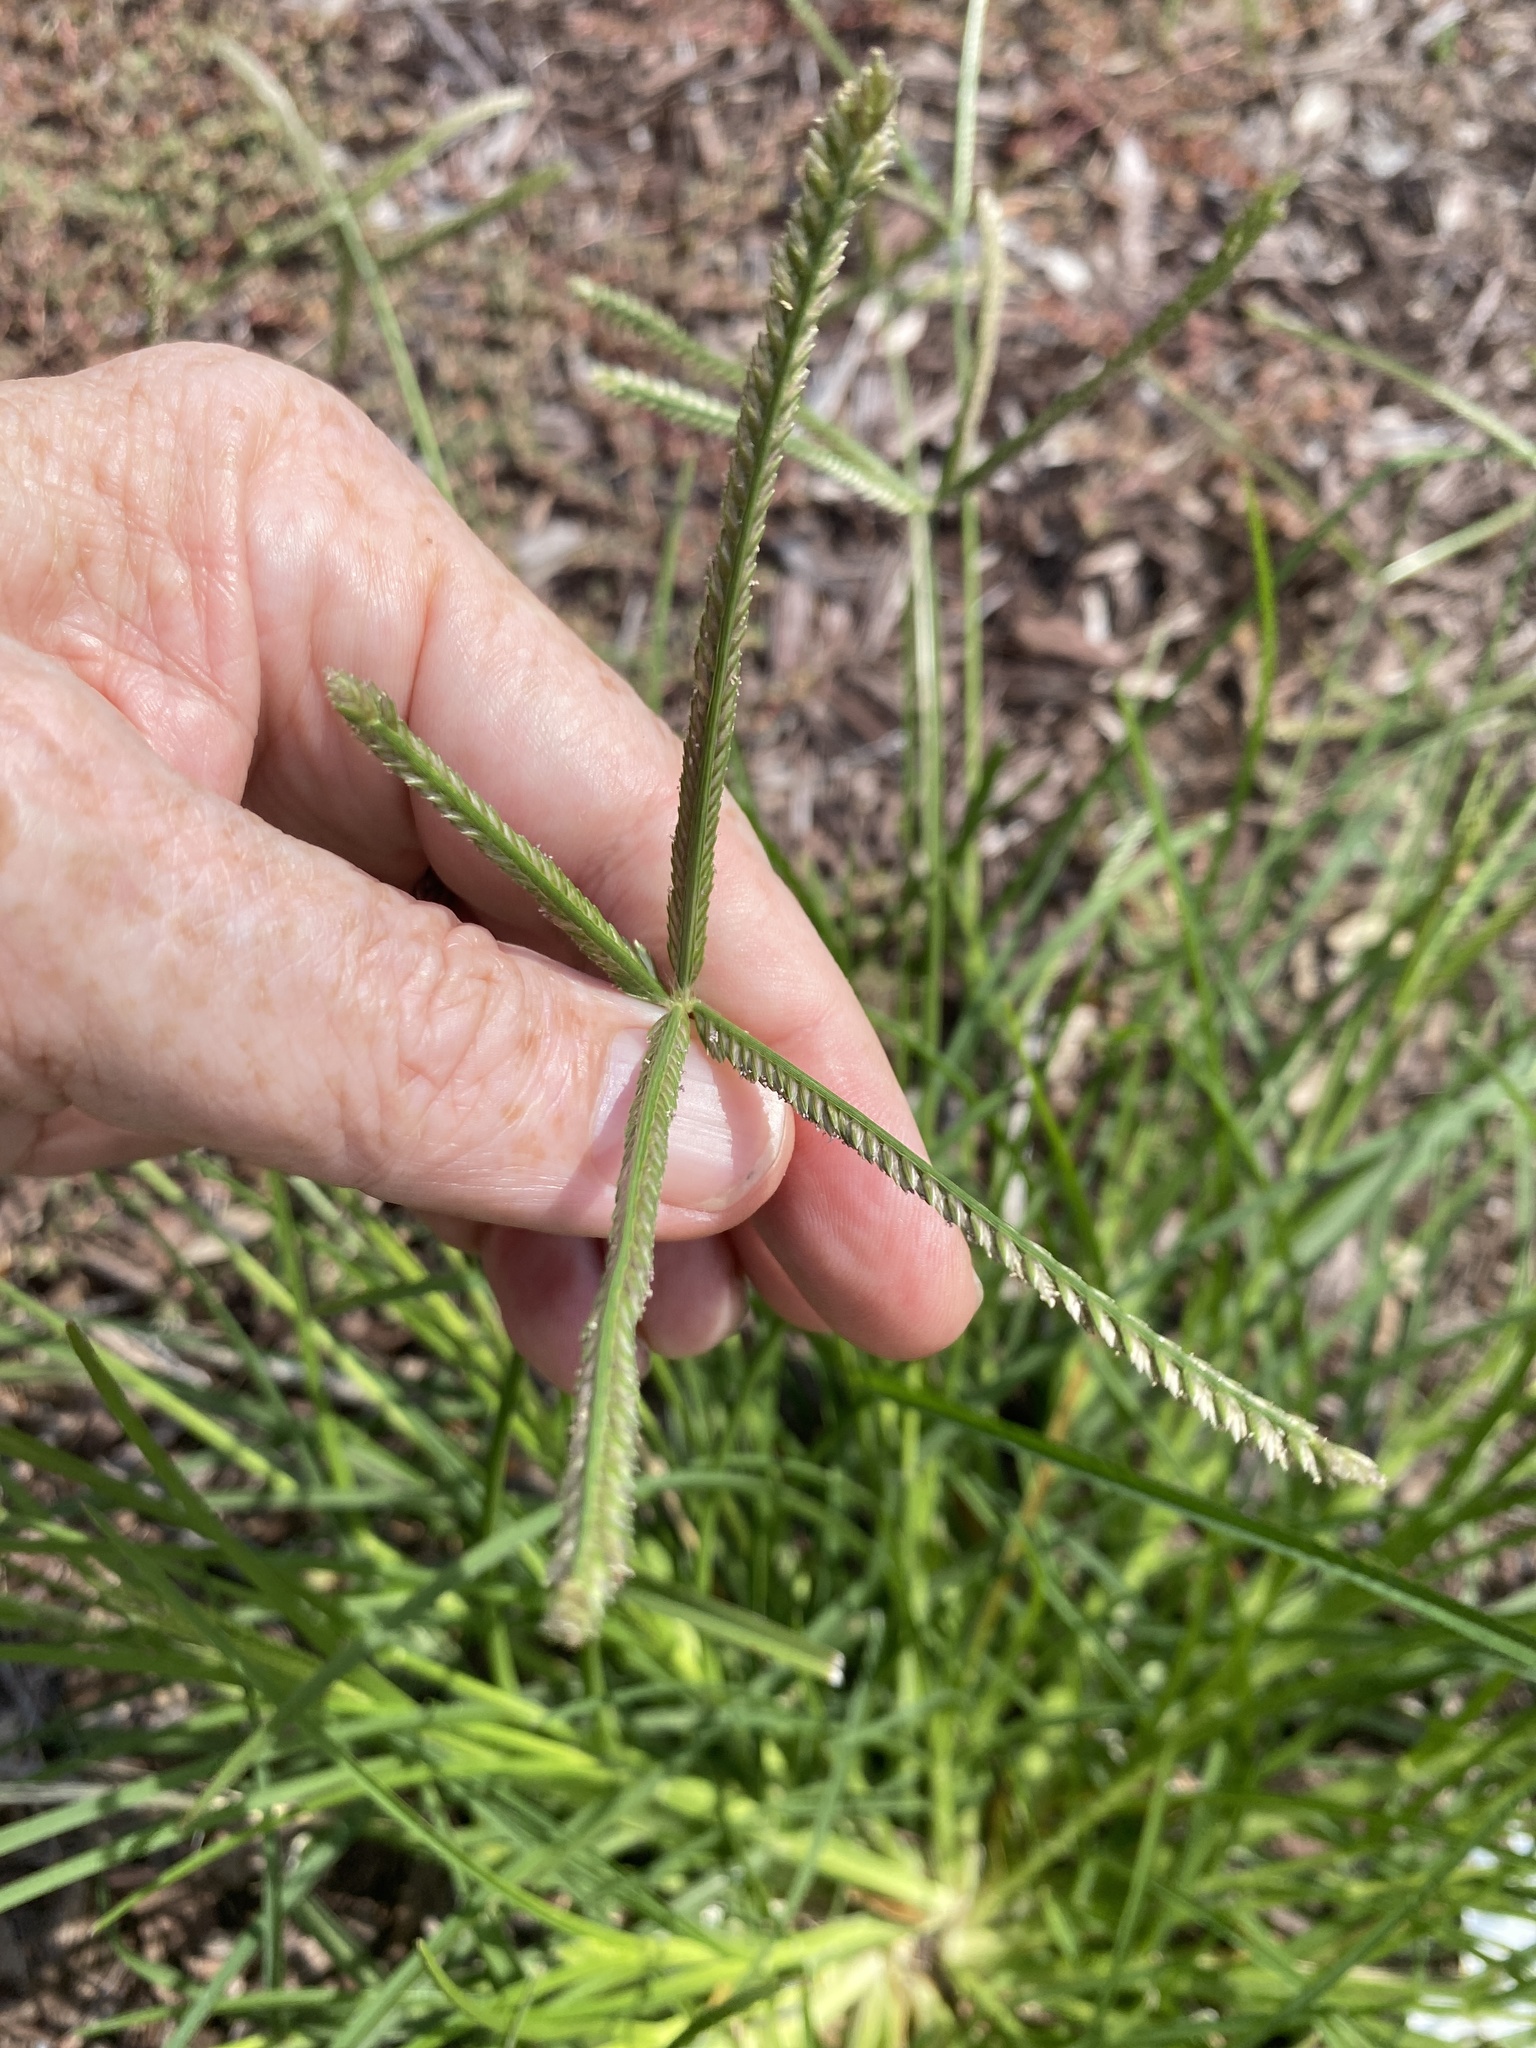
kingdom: Plantae
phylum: Tracheophyta
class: Liliopsida
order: Poales
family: Poaceae
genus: Eleusine
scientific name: Eleusine indica
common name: Yard-grass
